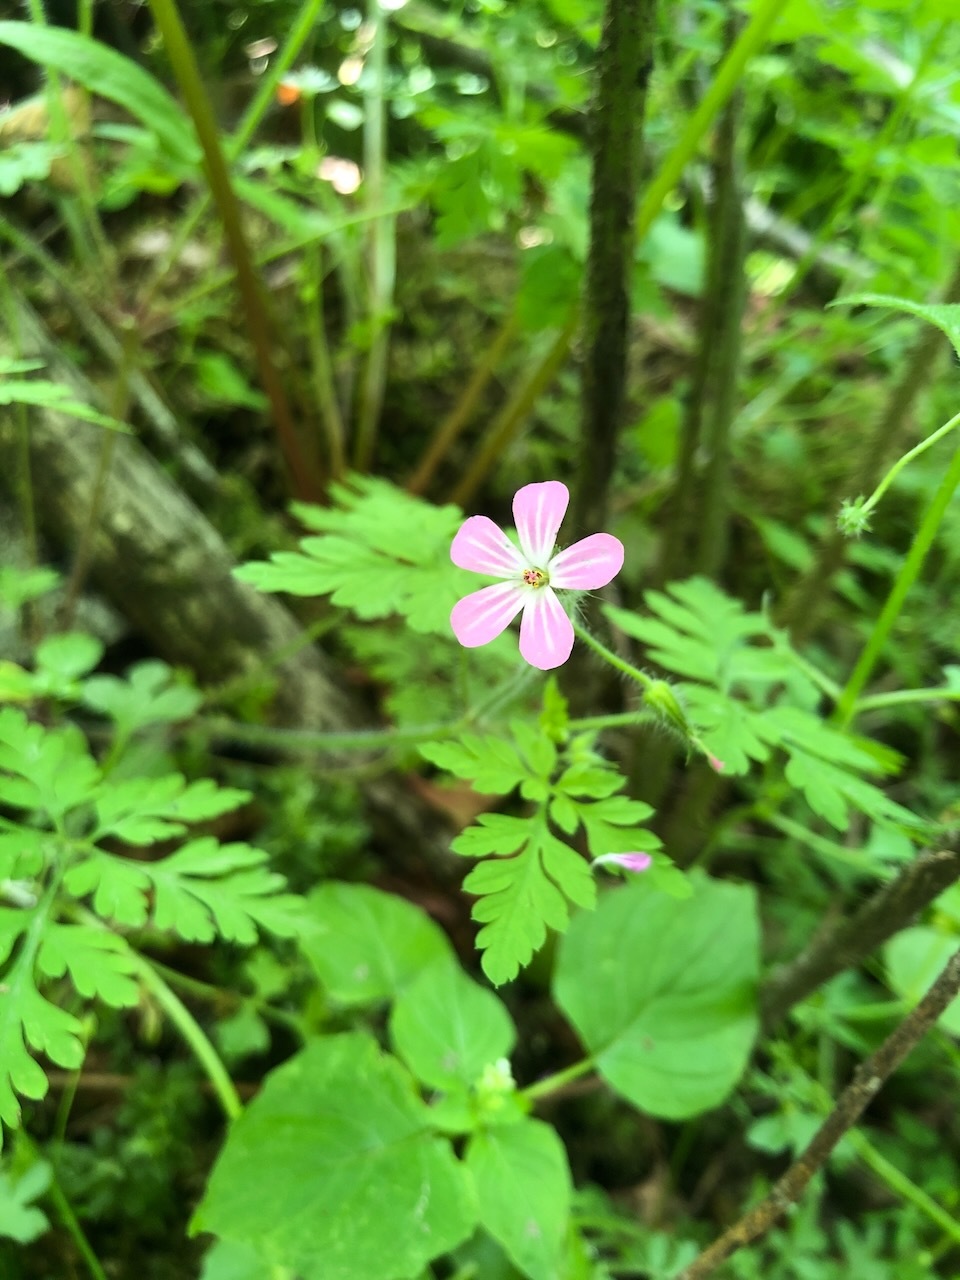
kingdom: Plantae
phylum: Tracheophyta
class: Magnoliopsida
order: Geraniales
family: Geraniaceae
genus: Geranium
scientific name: Geranium robertianum
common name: Herb-robert
